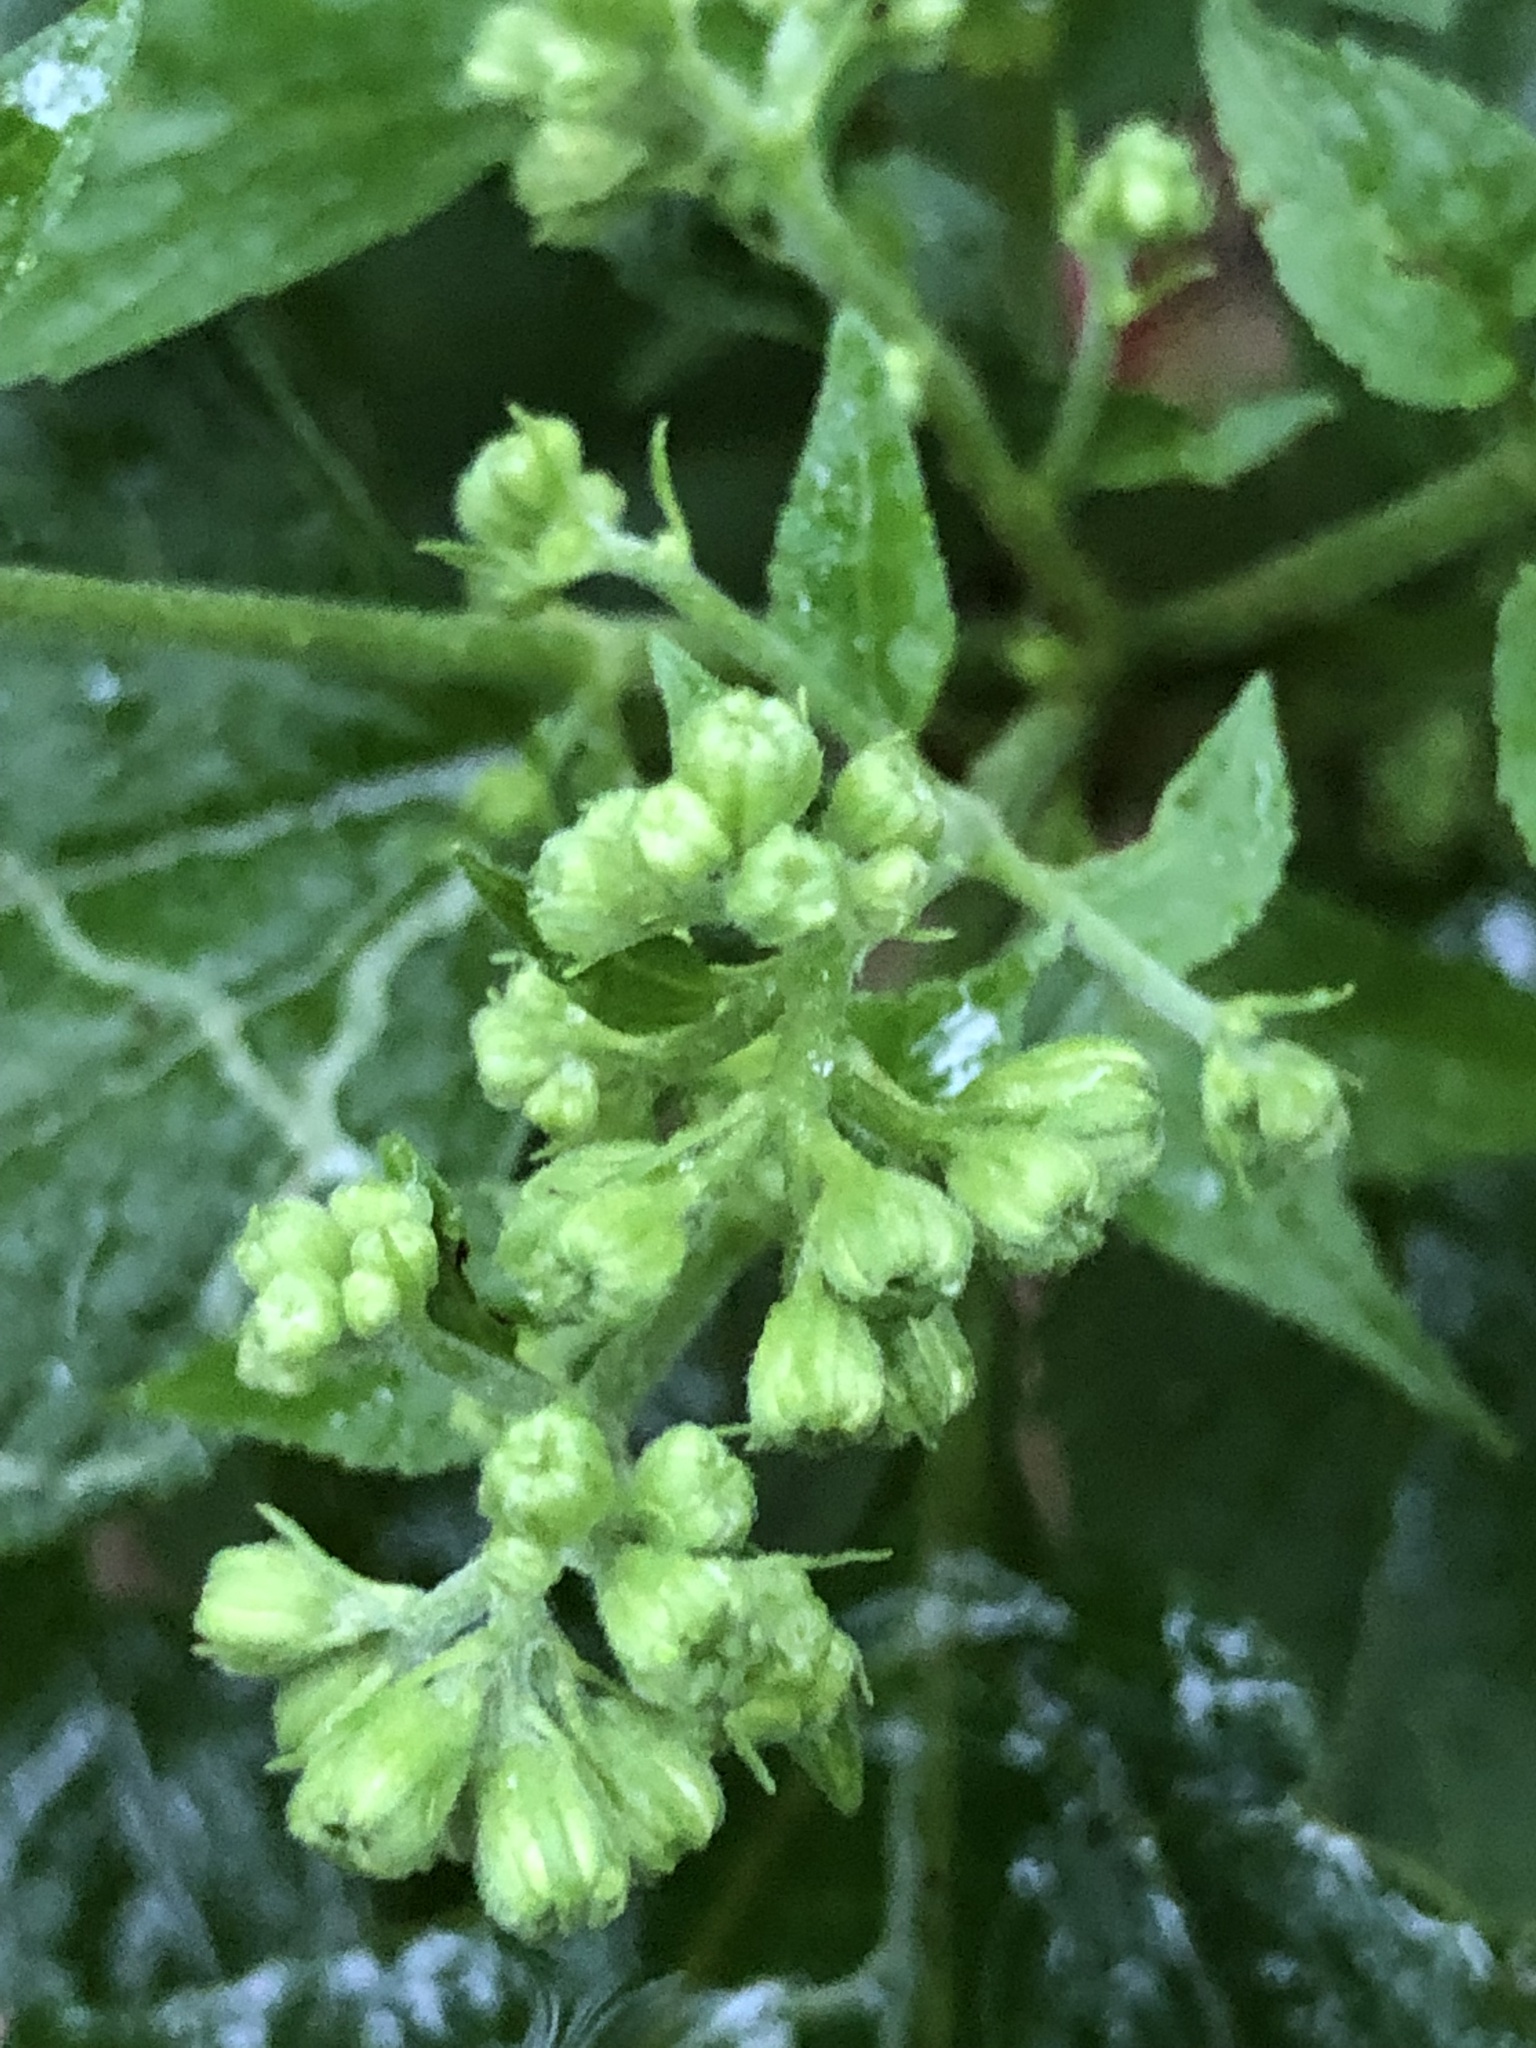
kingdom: Plantae
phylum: Tracheophyta
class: Magnoliopsida
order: Asterales
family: Asteraceae
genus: Ageratina
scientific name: Ageratina altissima
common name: White snakeroot
